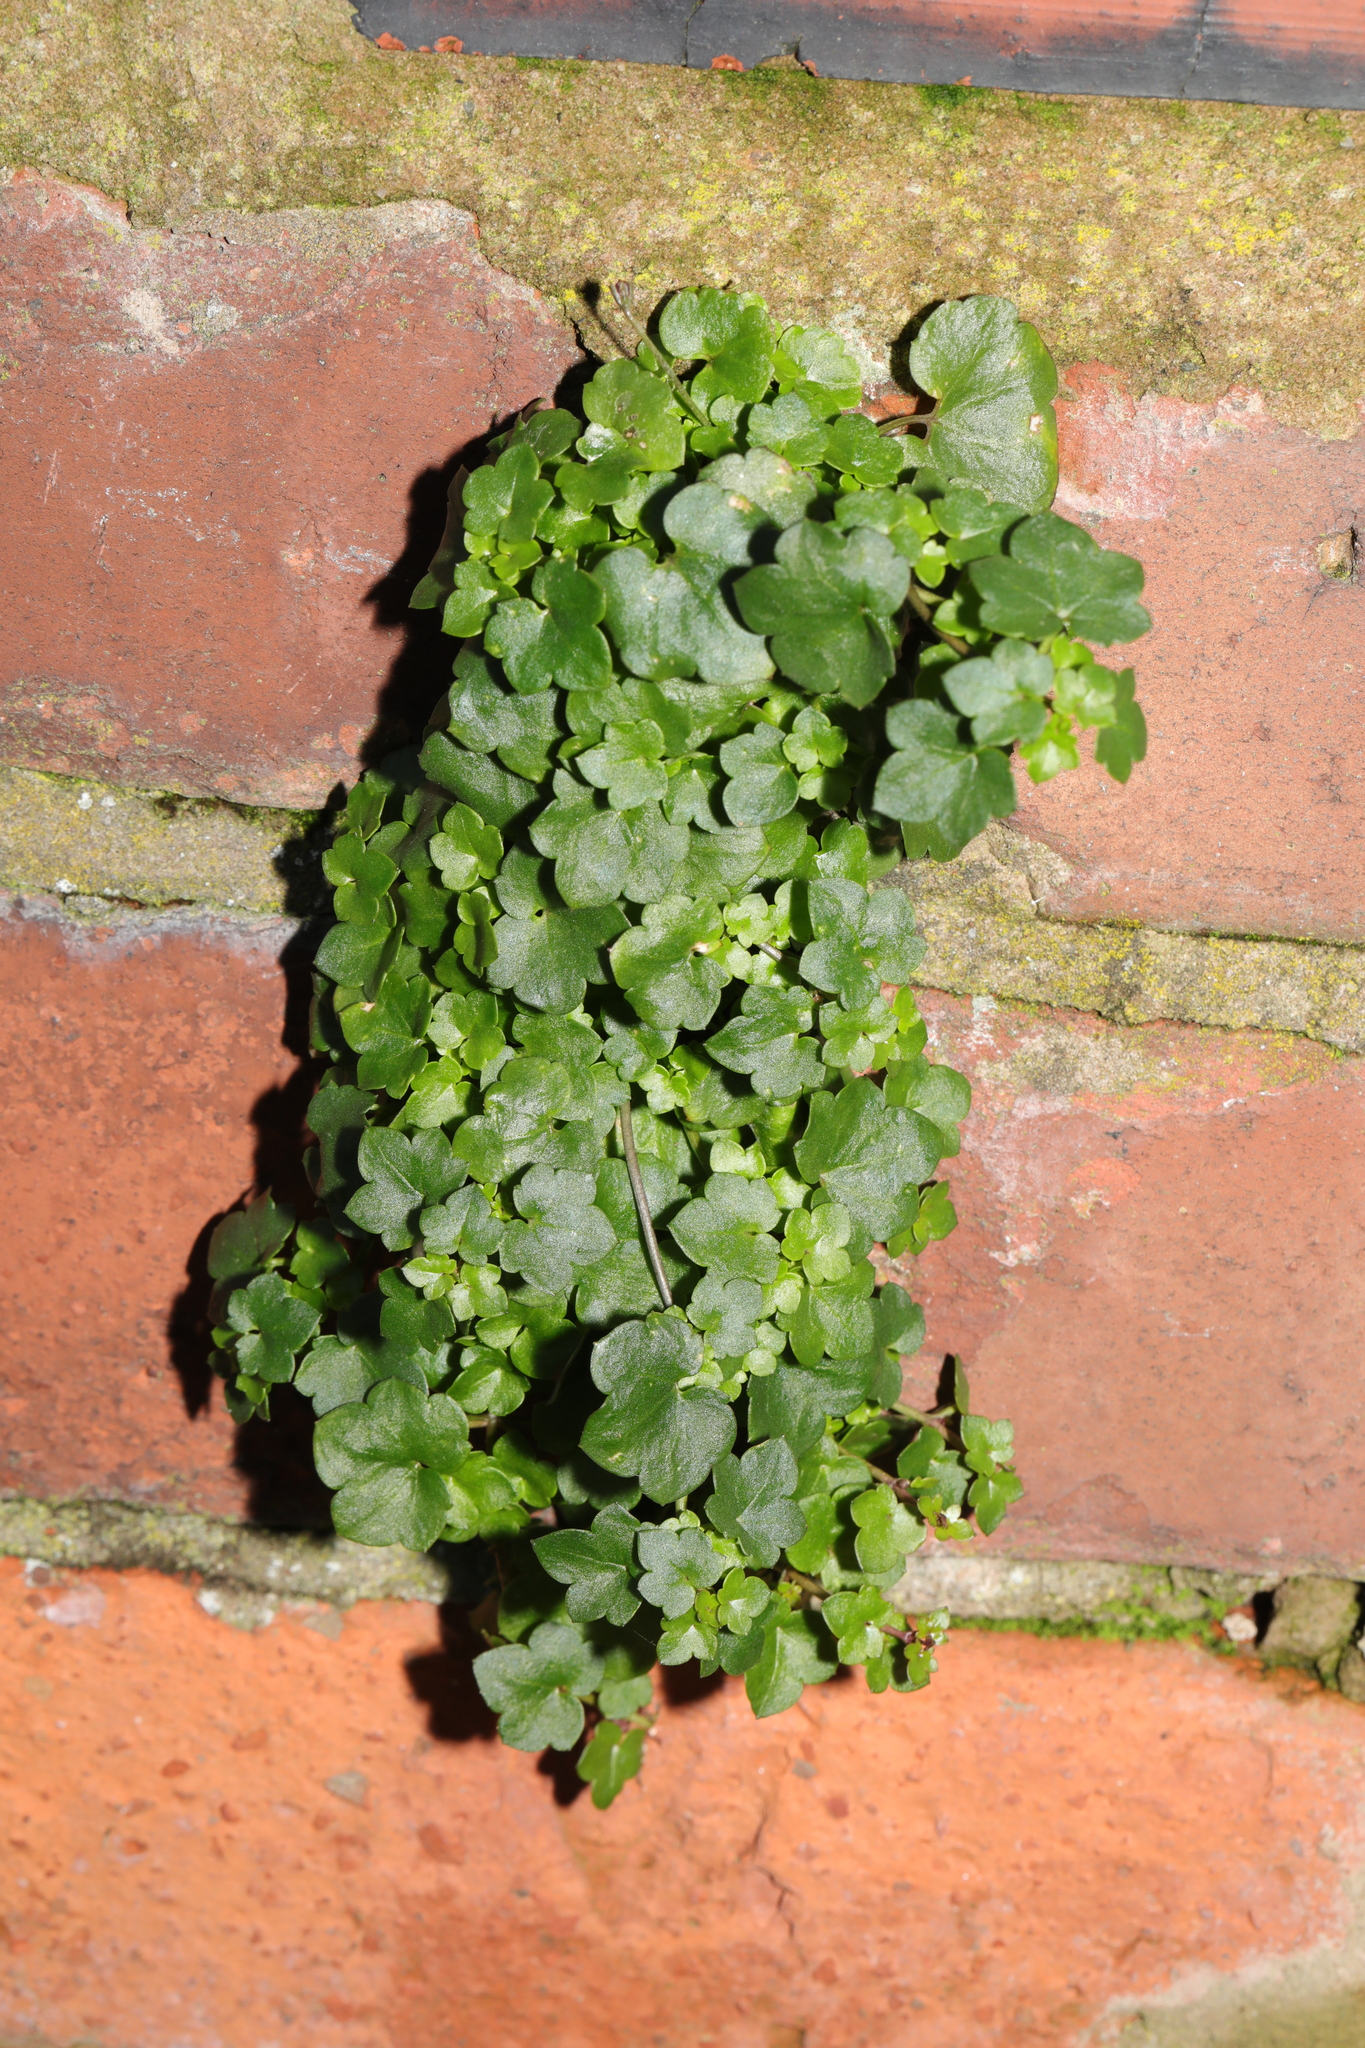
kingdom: Plantae
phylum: Tracheophyta
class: Magnoliopsida
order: Lamiales
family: Plantaginaceae
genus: Cymbalaria
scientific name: Cymbalaria muralis
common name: Ivy-leaved toadflax
